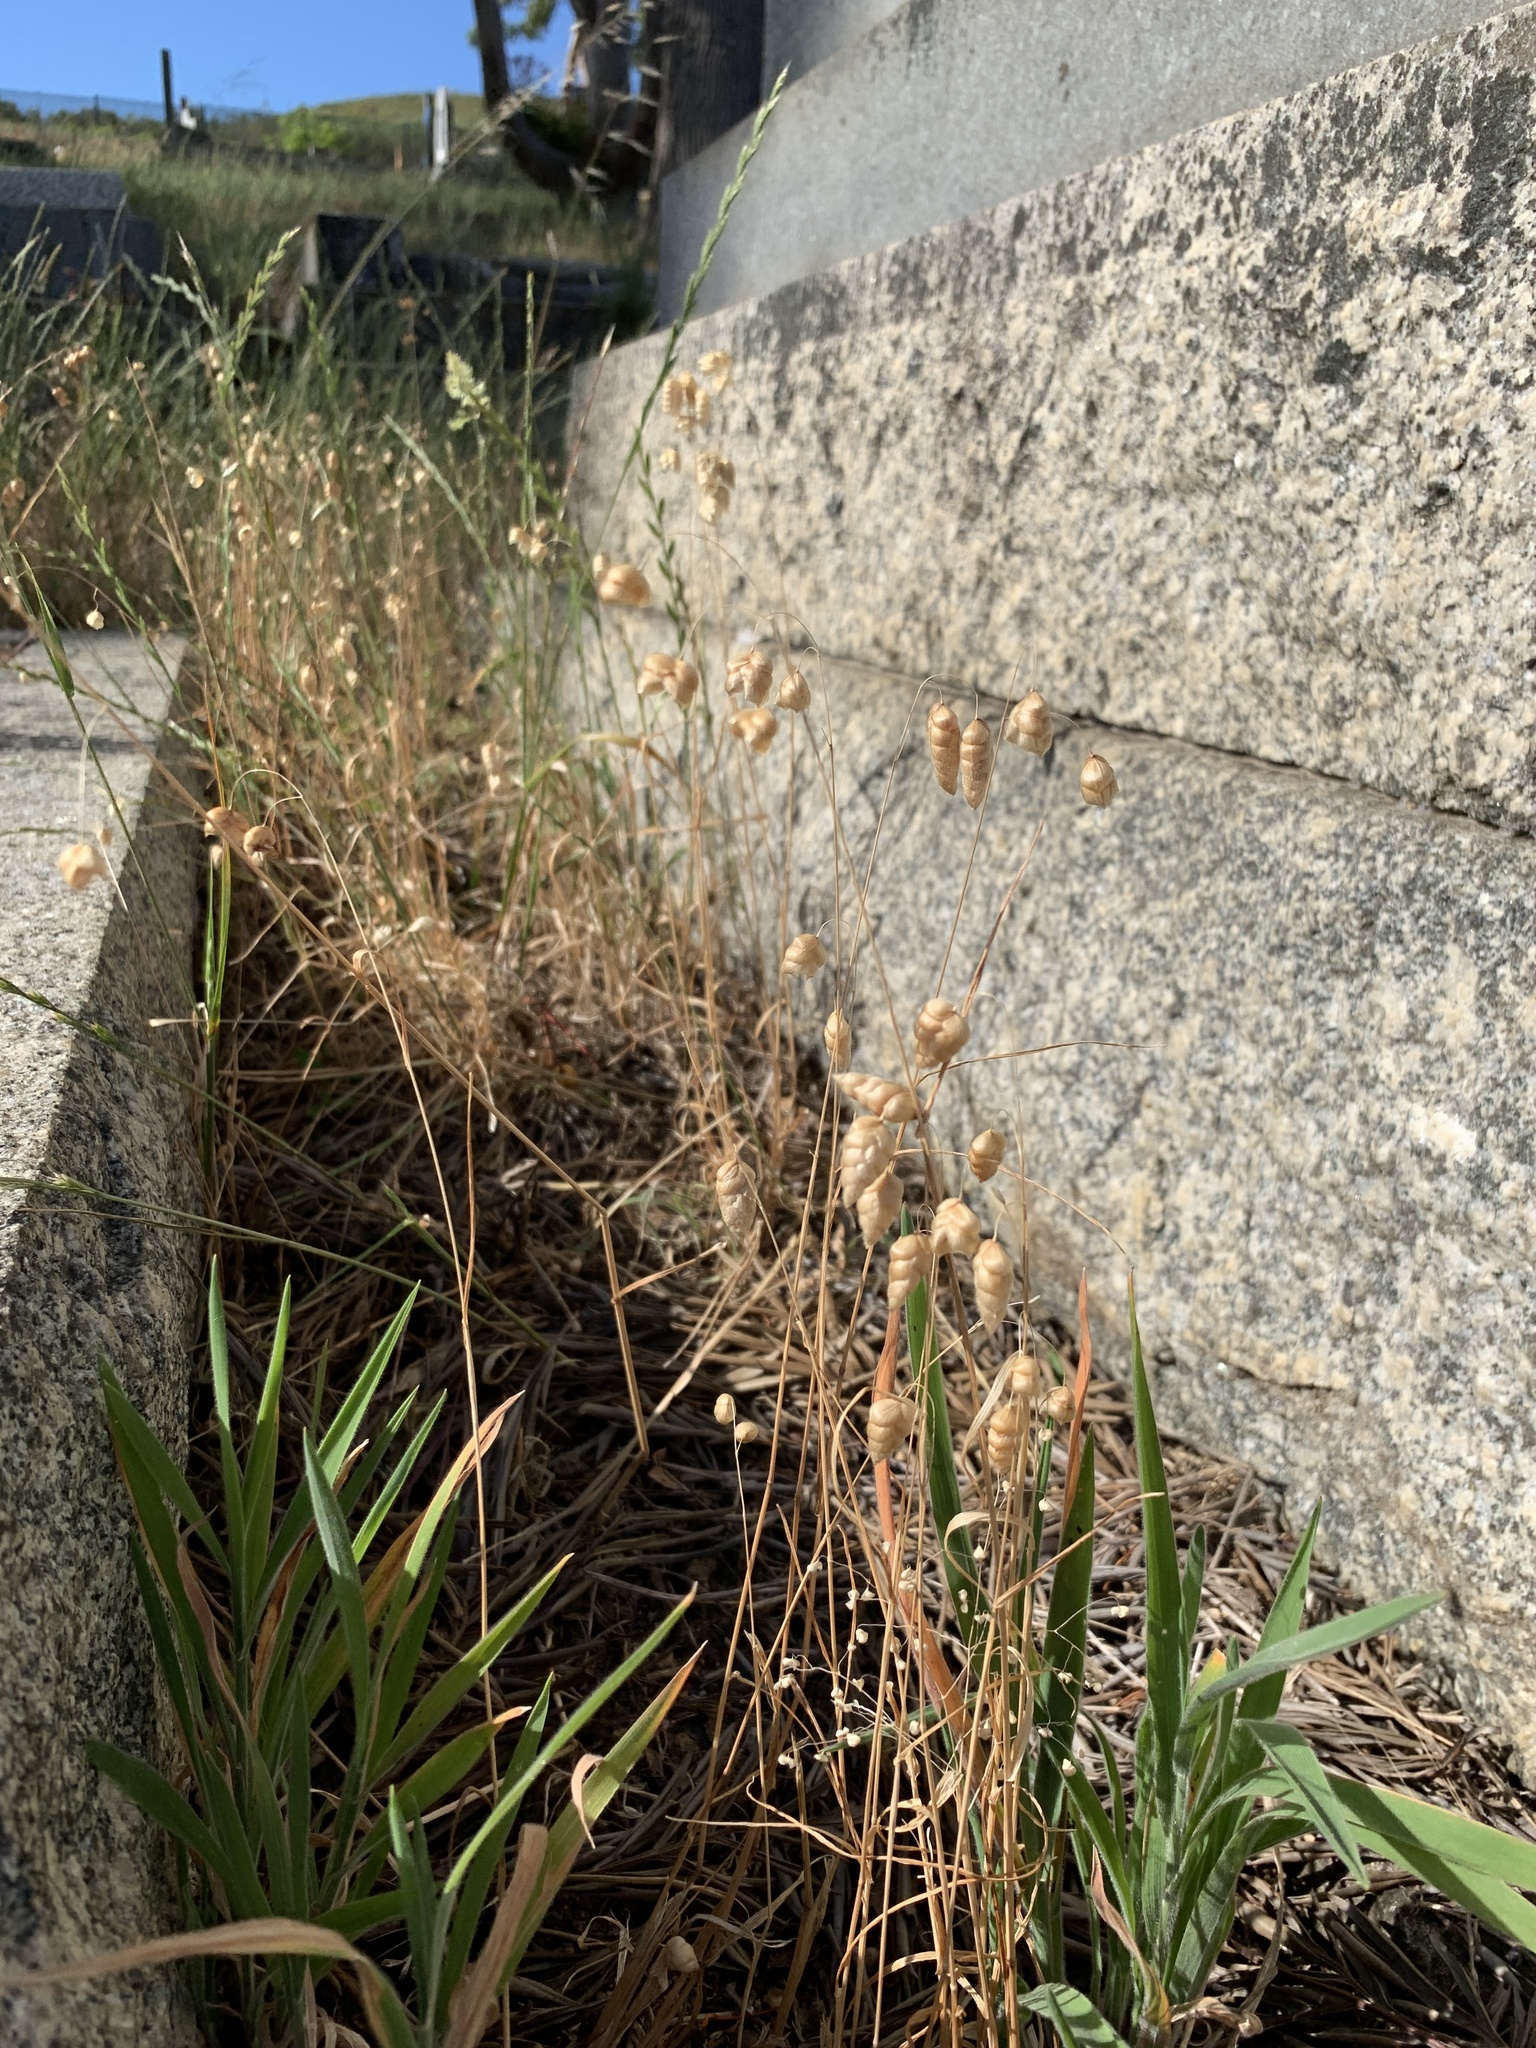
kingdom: Plantae
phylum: Tracheophyta
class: Liliopsida
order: Poales
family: Poaceae
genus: Briza
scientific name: Briza maxima
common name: Big quakinggrass
